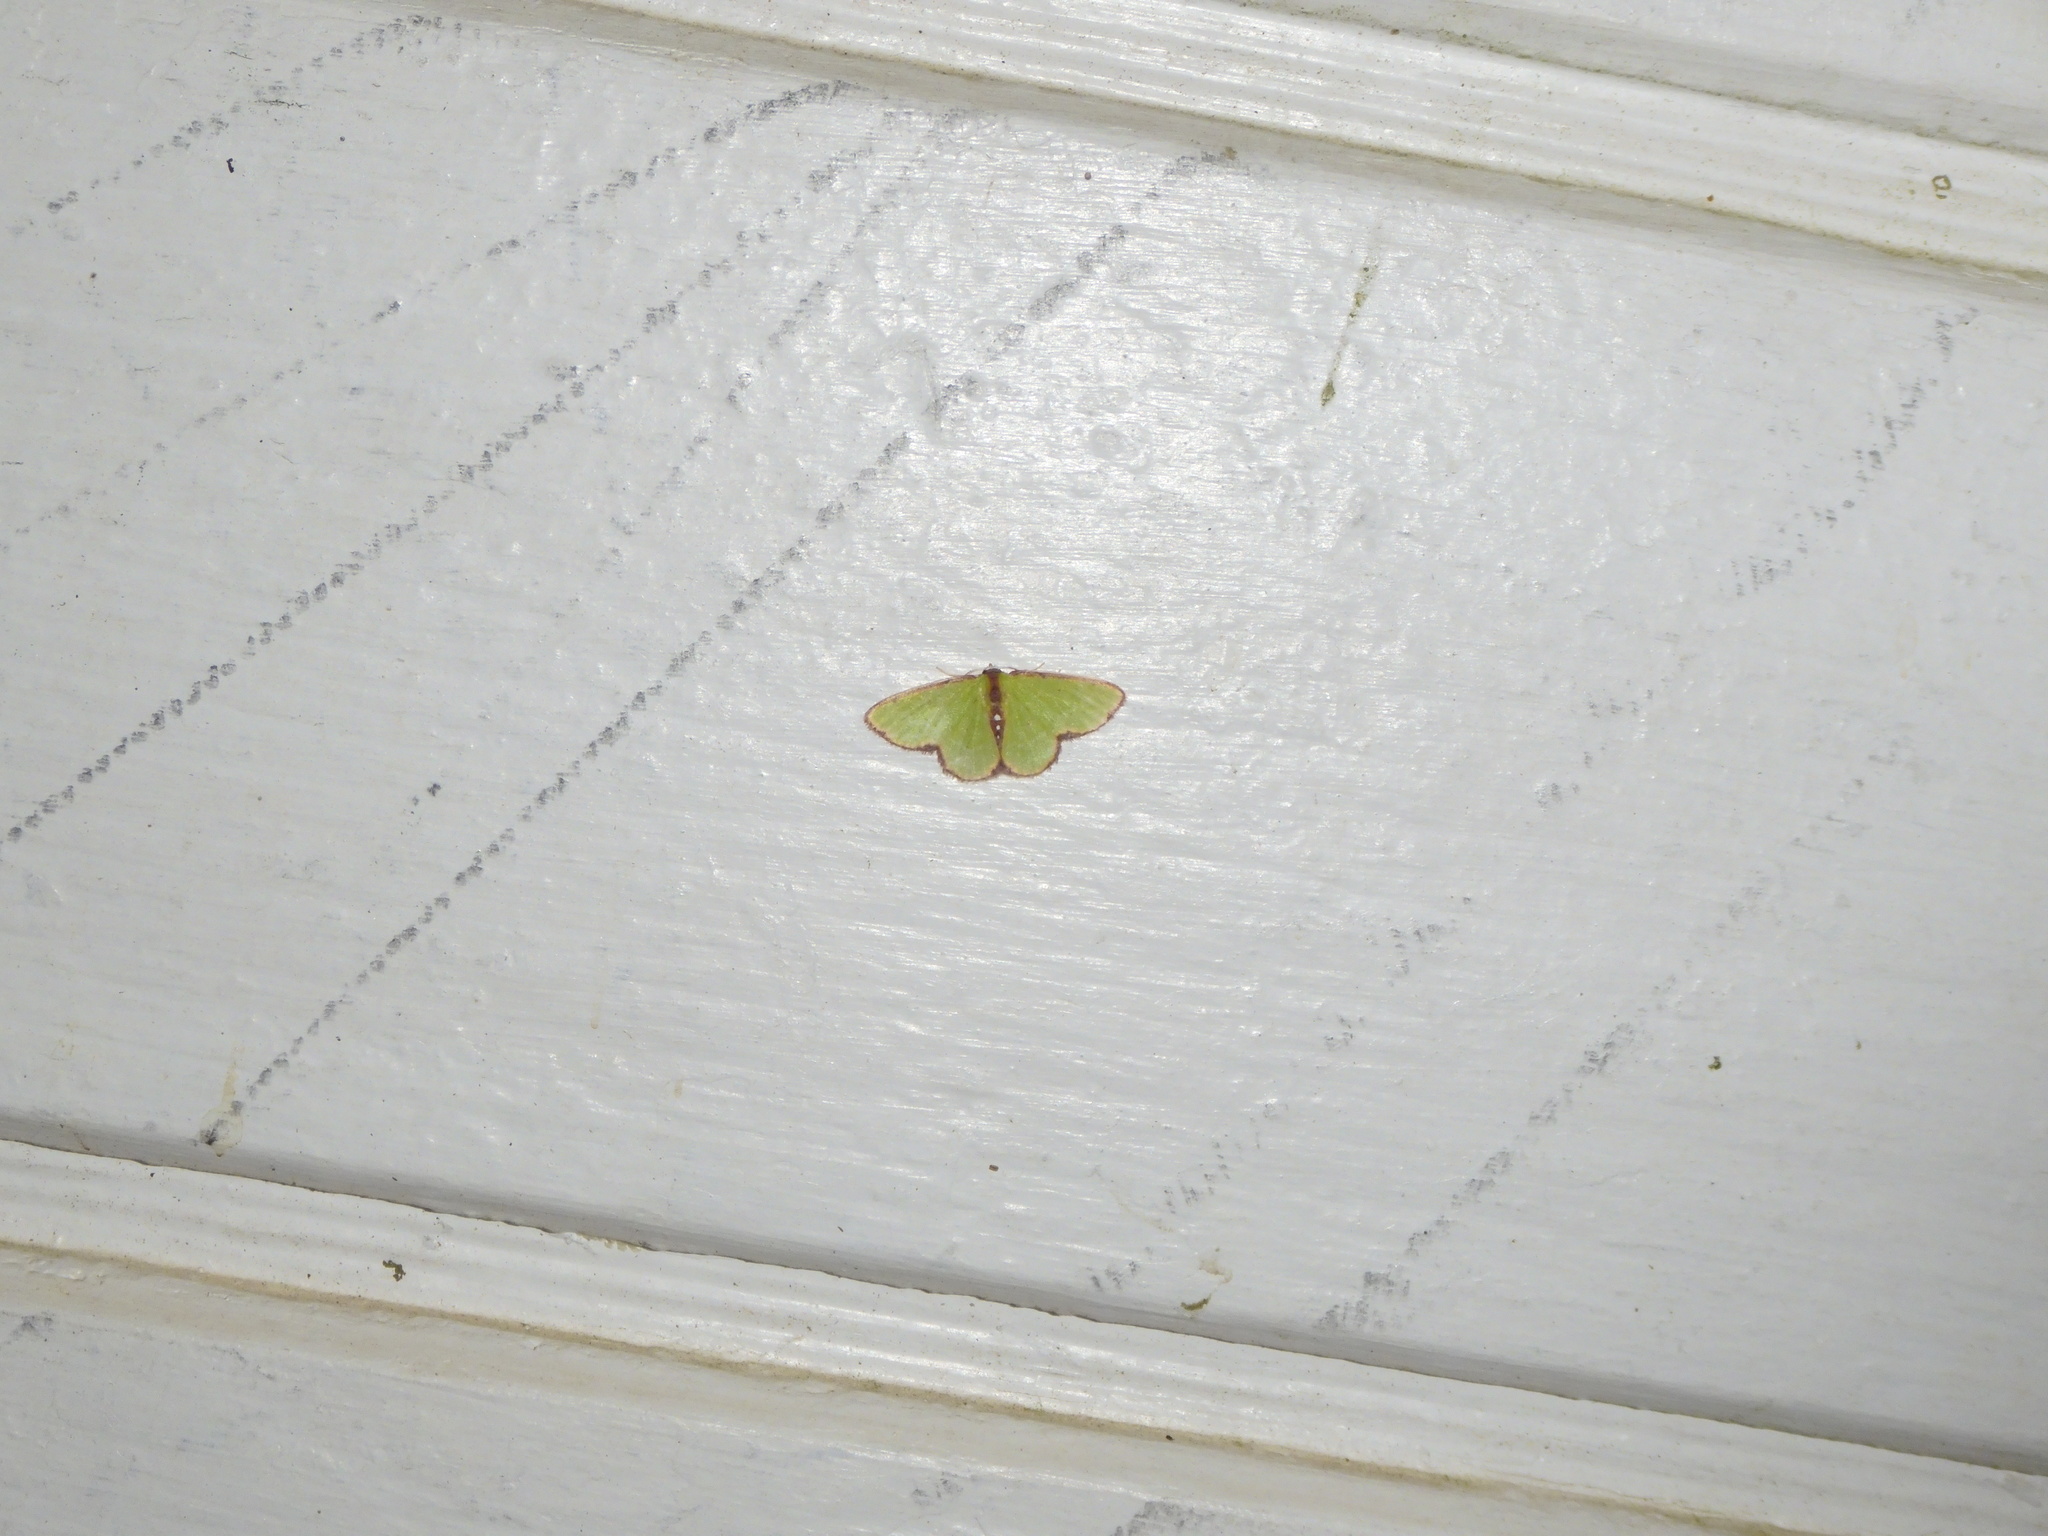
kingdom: Animalia
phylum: Arthropoda
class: Insecta
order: Lepidoptera
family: Geometridae
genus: Synchlora
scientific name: Synchlora cupedinaria
